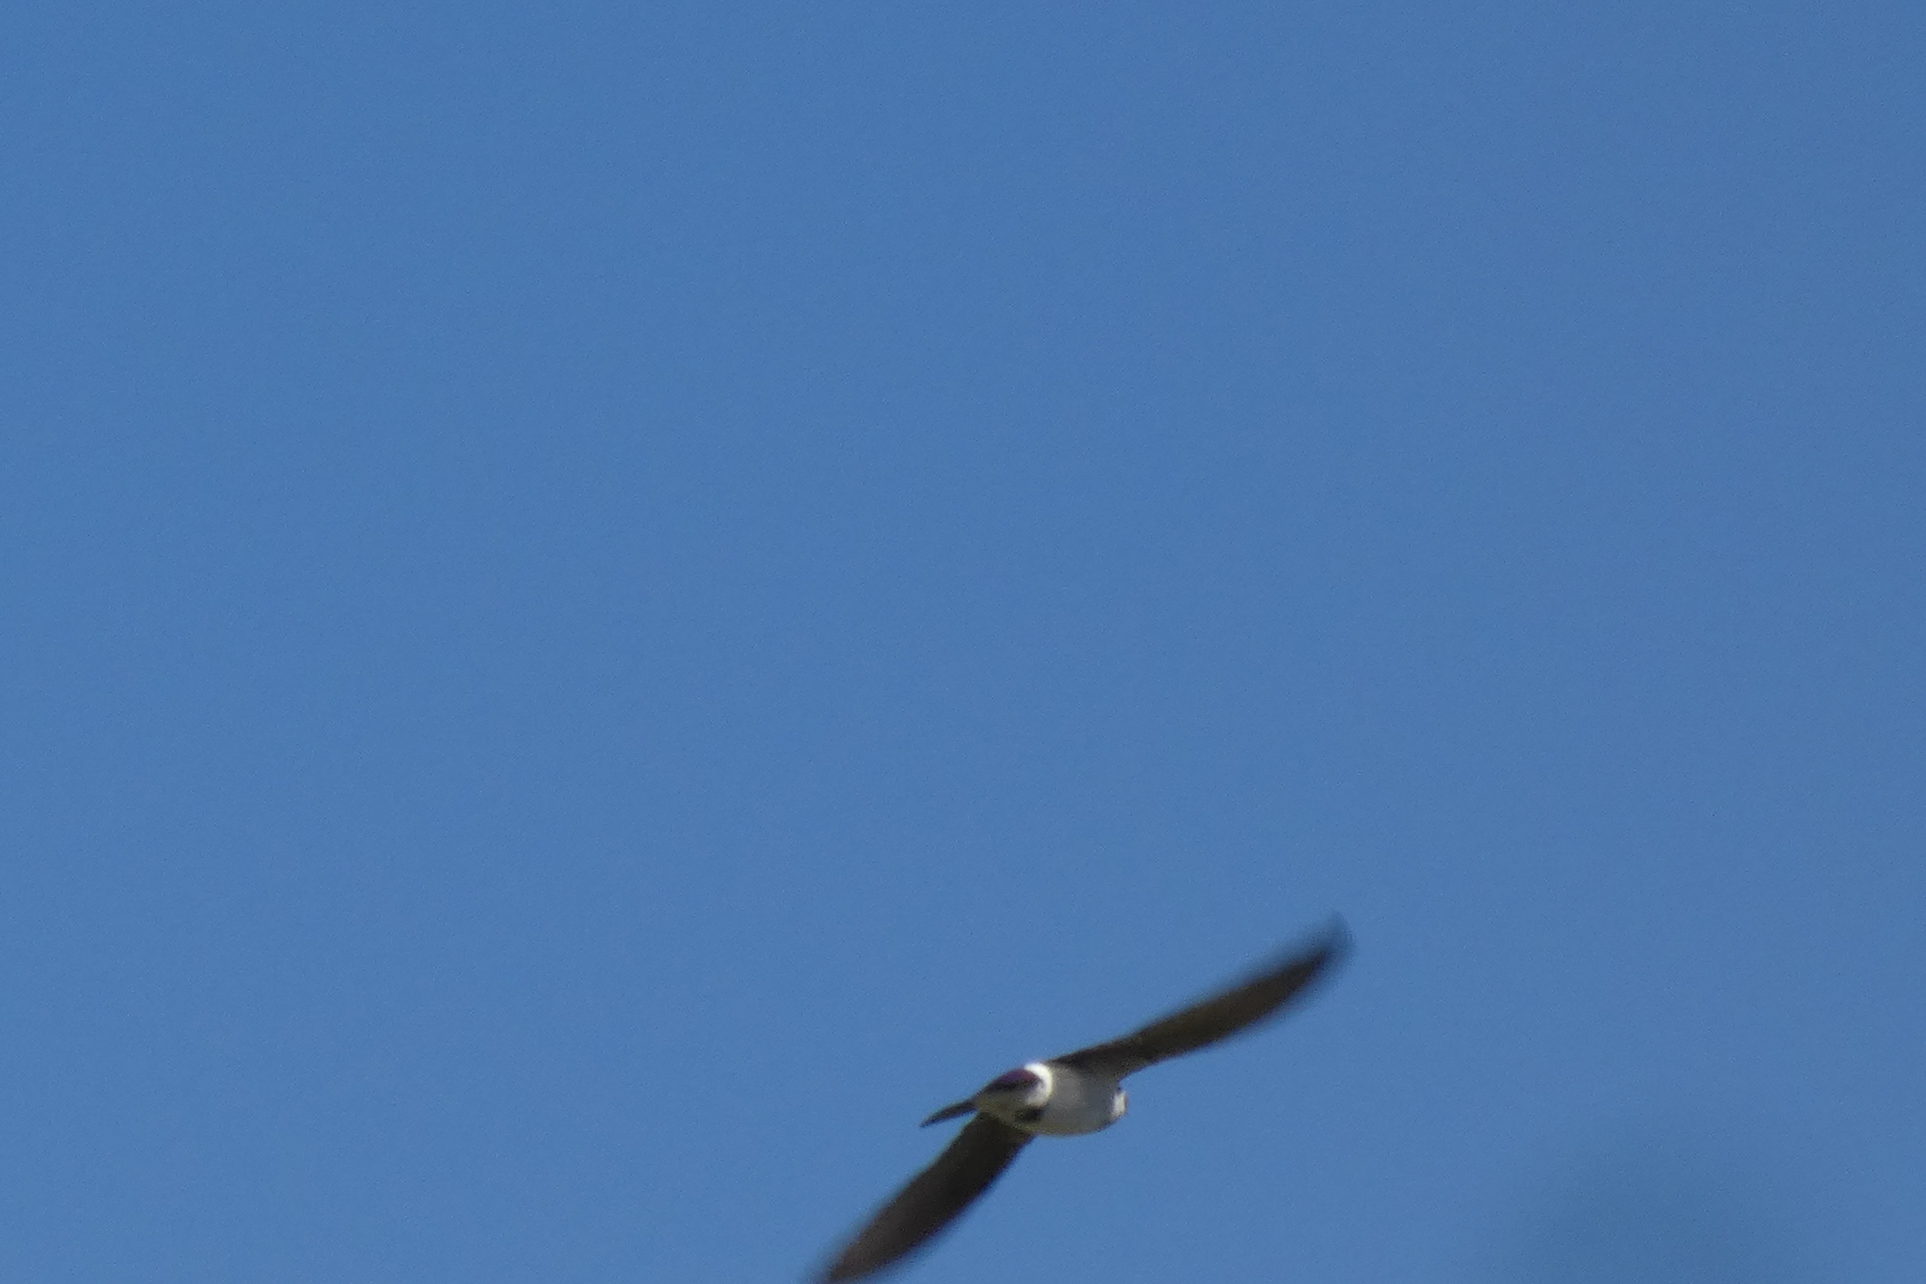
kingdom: Animalia
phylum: Chordata
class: Aves
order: Passeriformes
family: Hirundinidae
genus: Tachycineta
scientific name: Tachycineta thalassina
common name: Violet-green swallow
